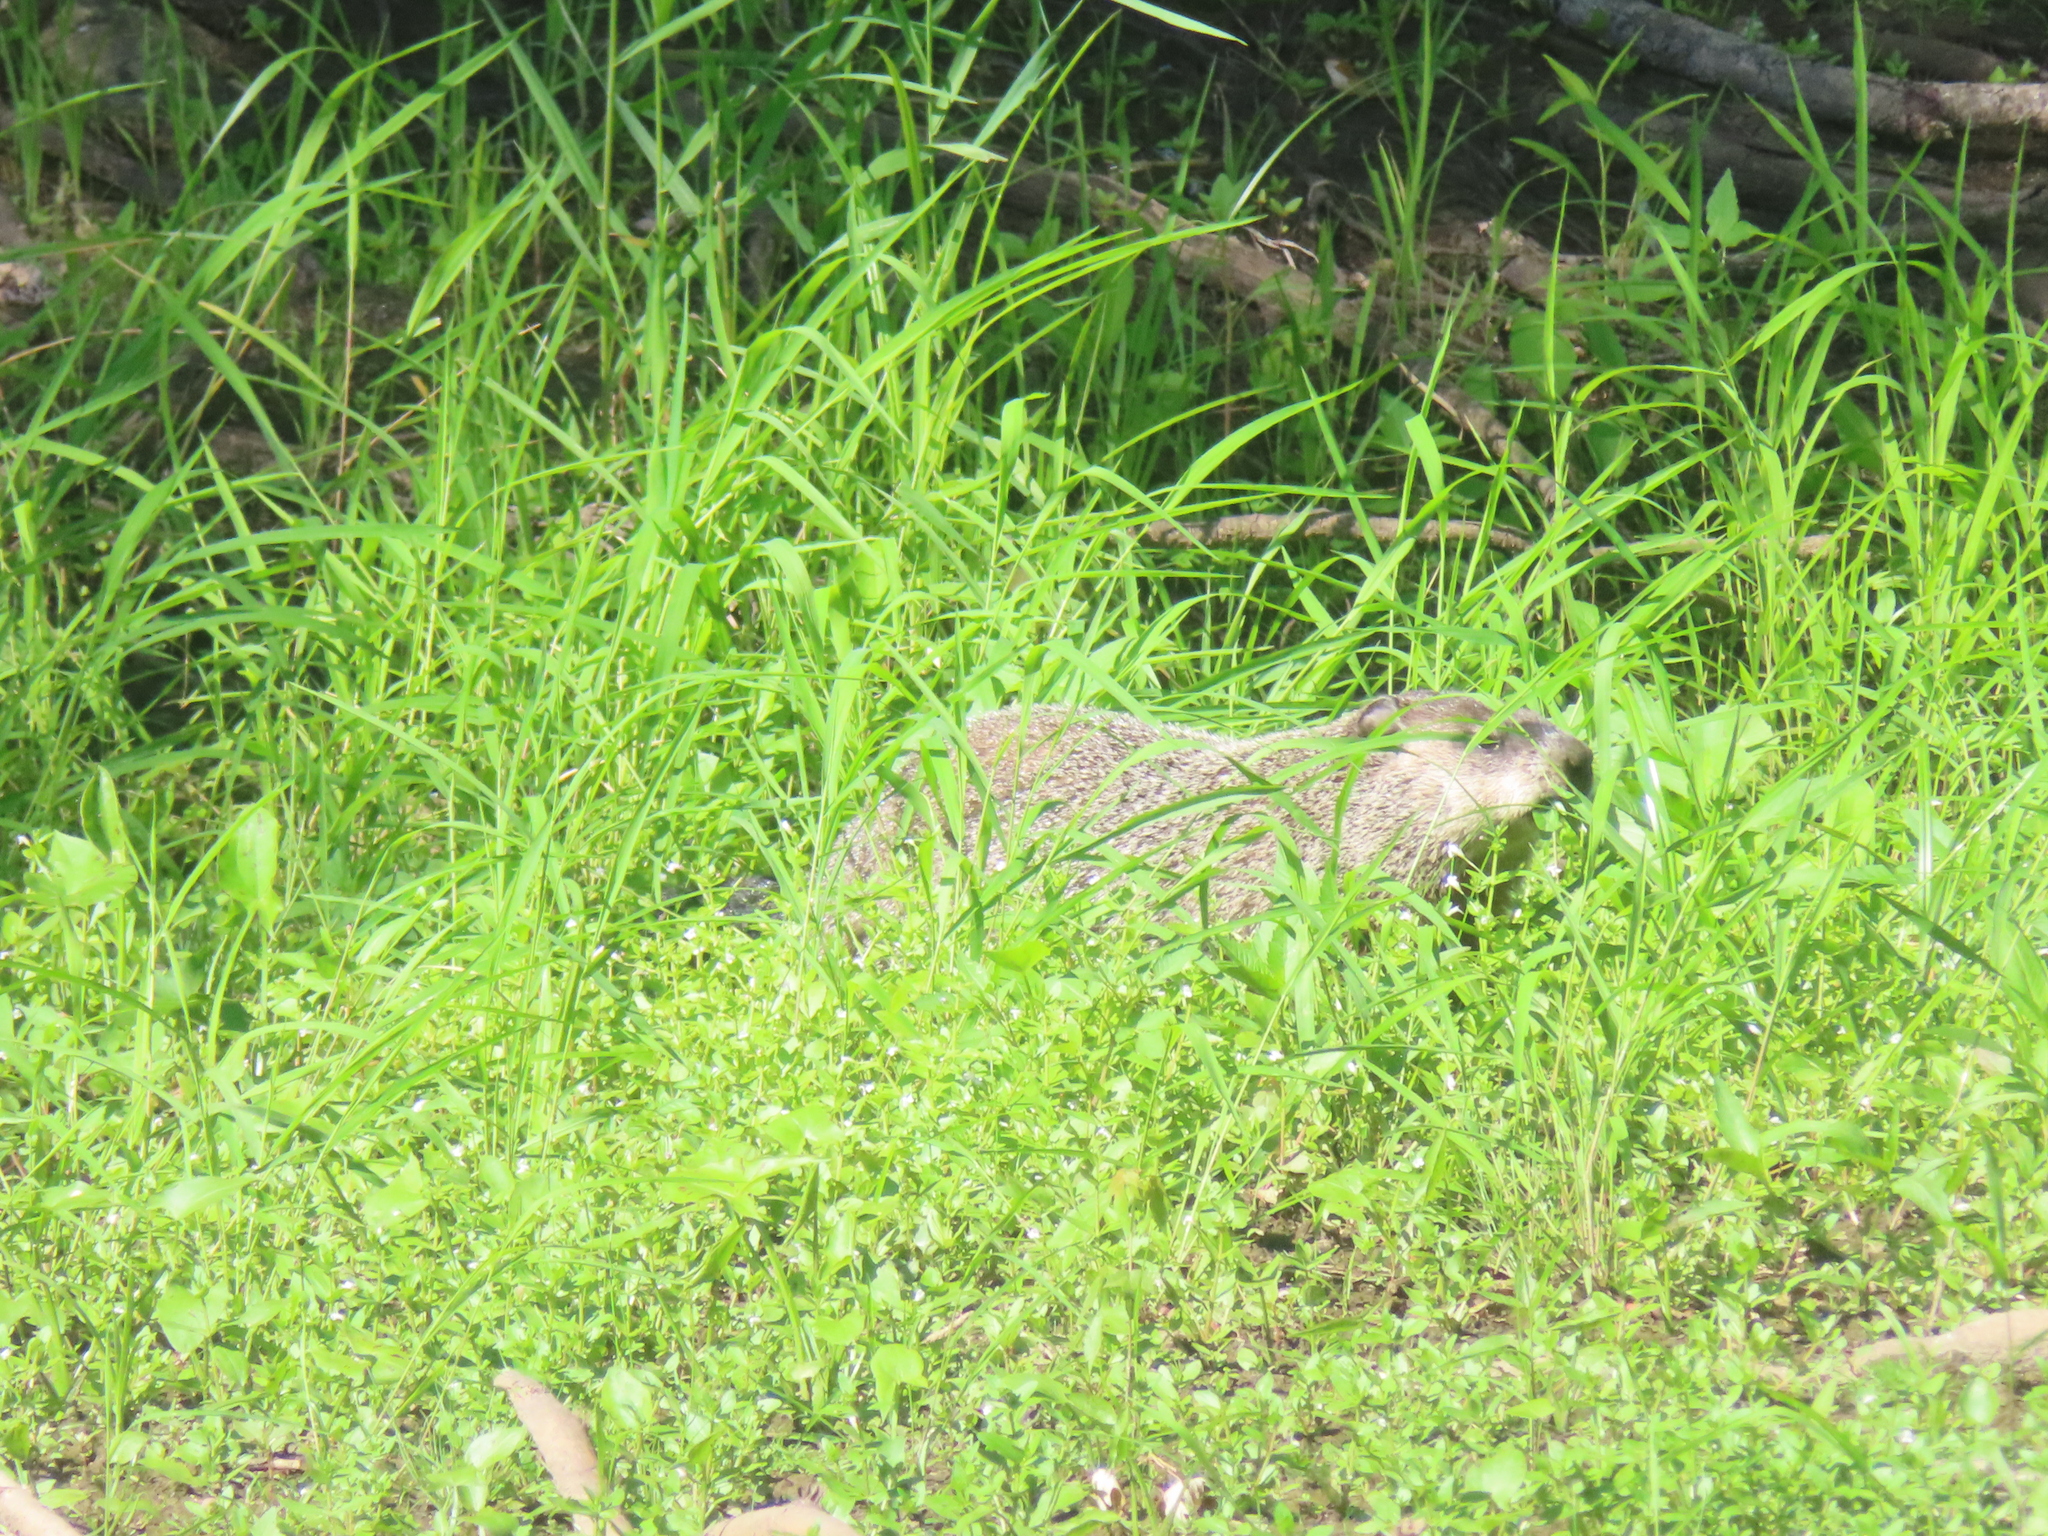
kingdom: Animalia
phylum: Chordata
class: Mammalia
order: Rodentia
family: Sciuridae
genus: Marmota
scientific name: Marmota monax
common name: Groundhog
